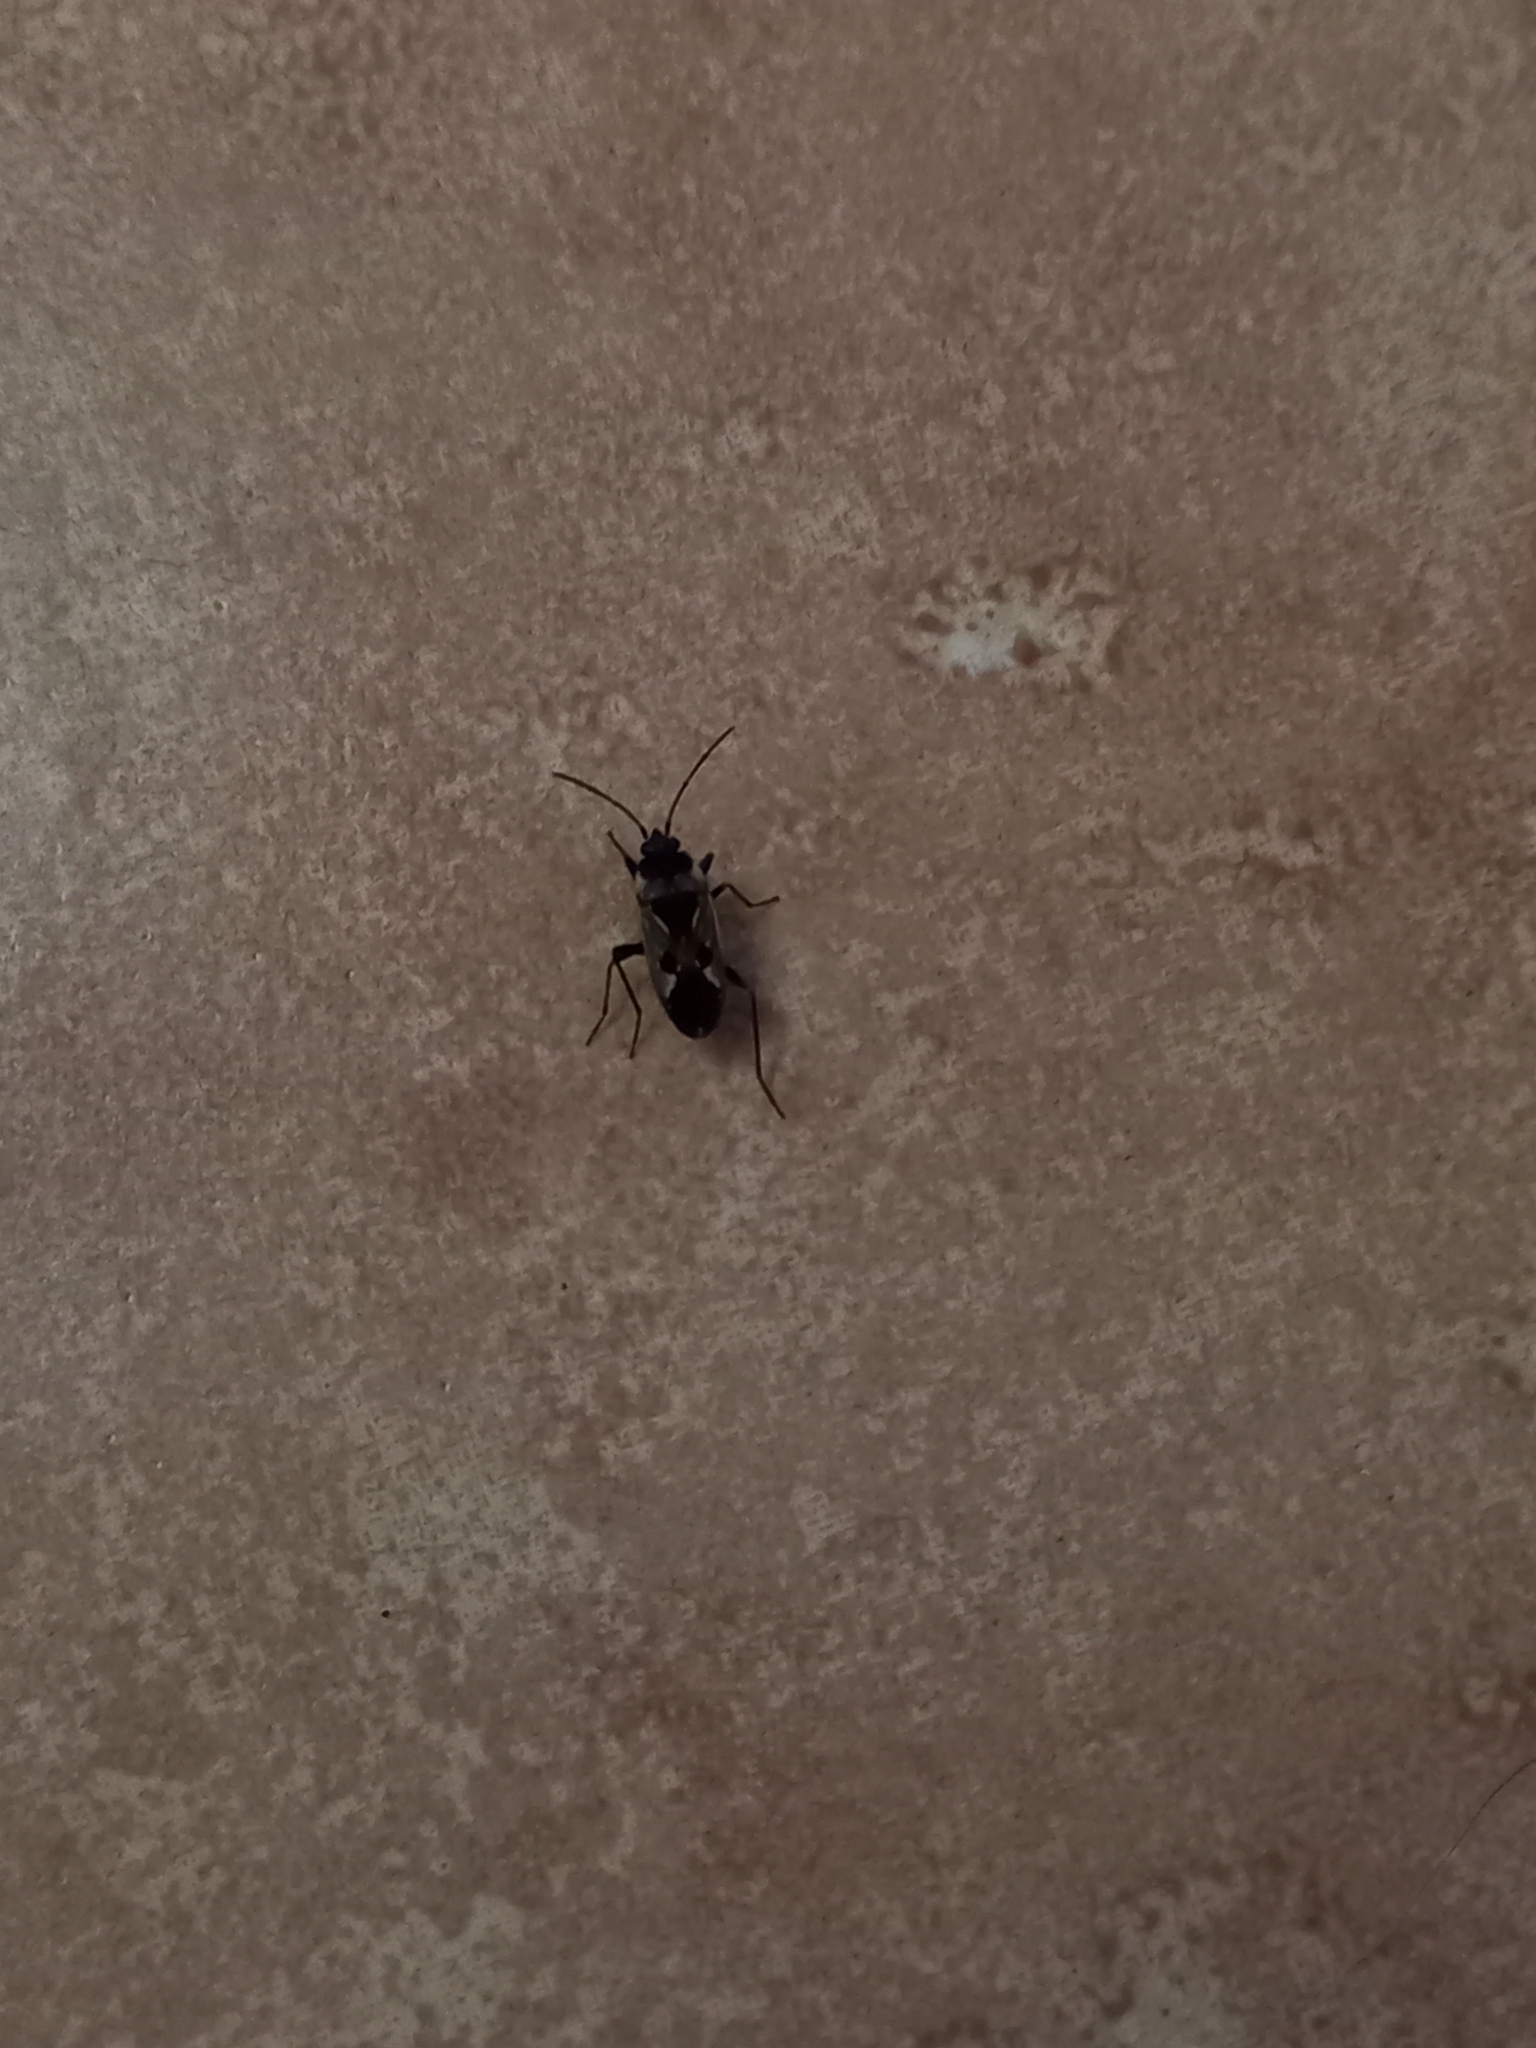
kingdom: Animalia
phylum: Arthropoda
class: Insecta
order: Hemiptera
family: Rhyparochromidae
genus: Rhyparochromus
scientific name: Rhyparochromus vulgaris
